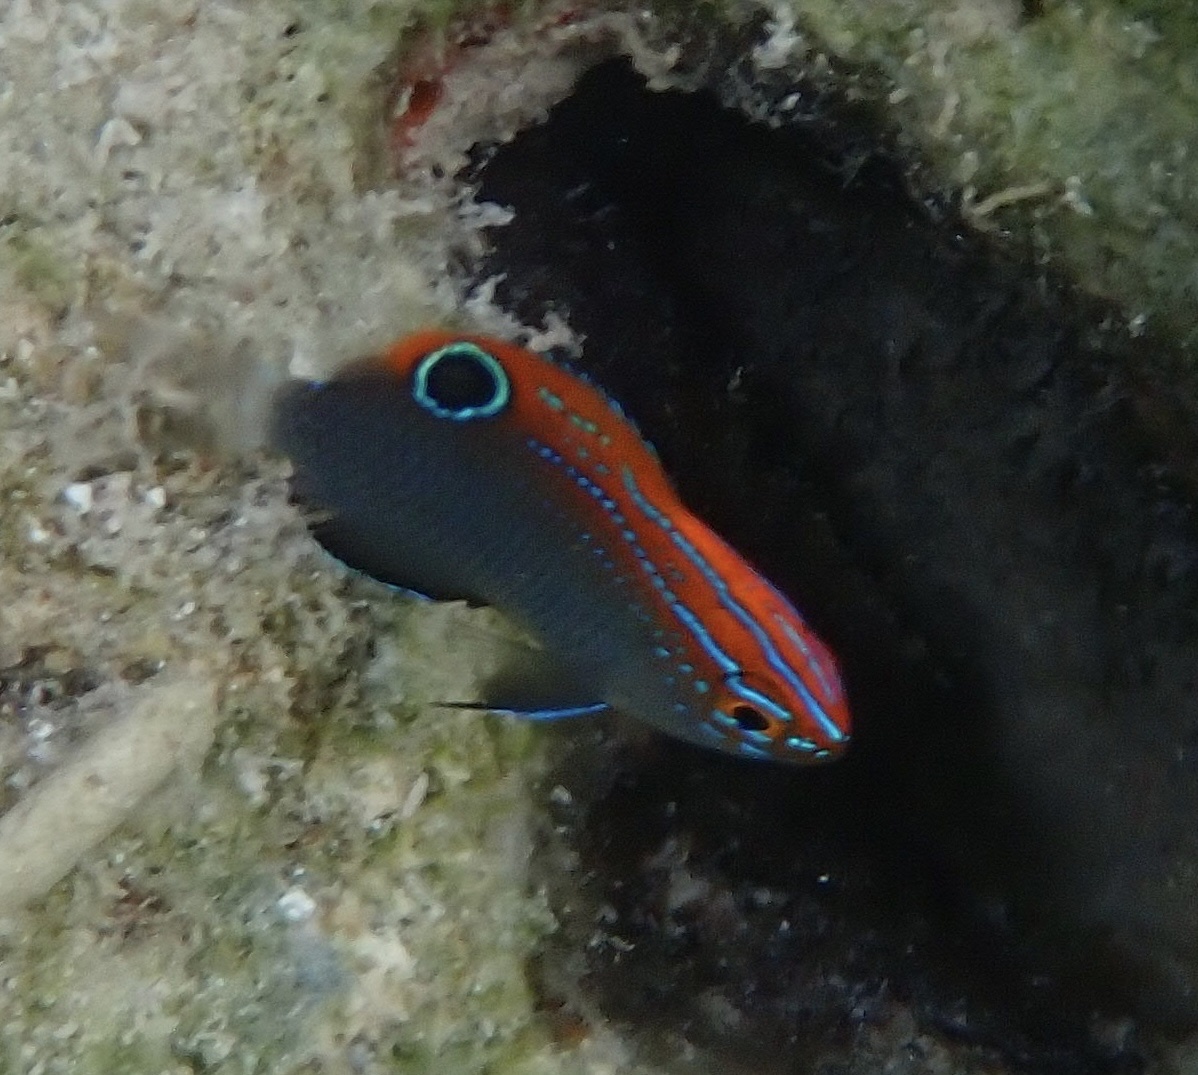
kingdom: Animalia
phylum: Chordata
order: Perciformes
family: Pomacentridae
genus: Pomacentrus
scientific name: Pomacentrus bankanensis
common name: Speckled damsel
